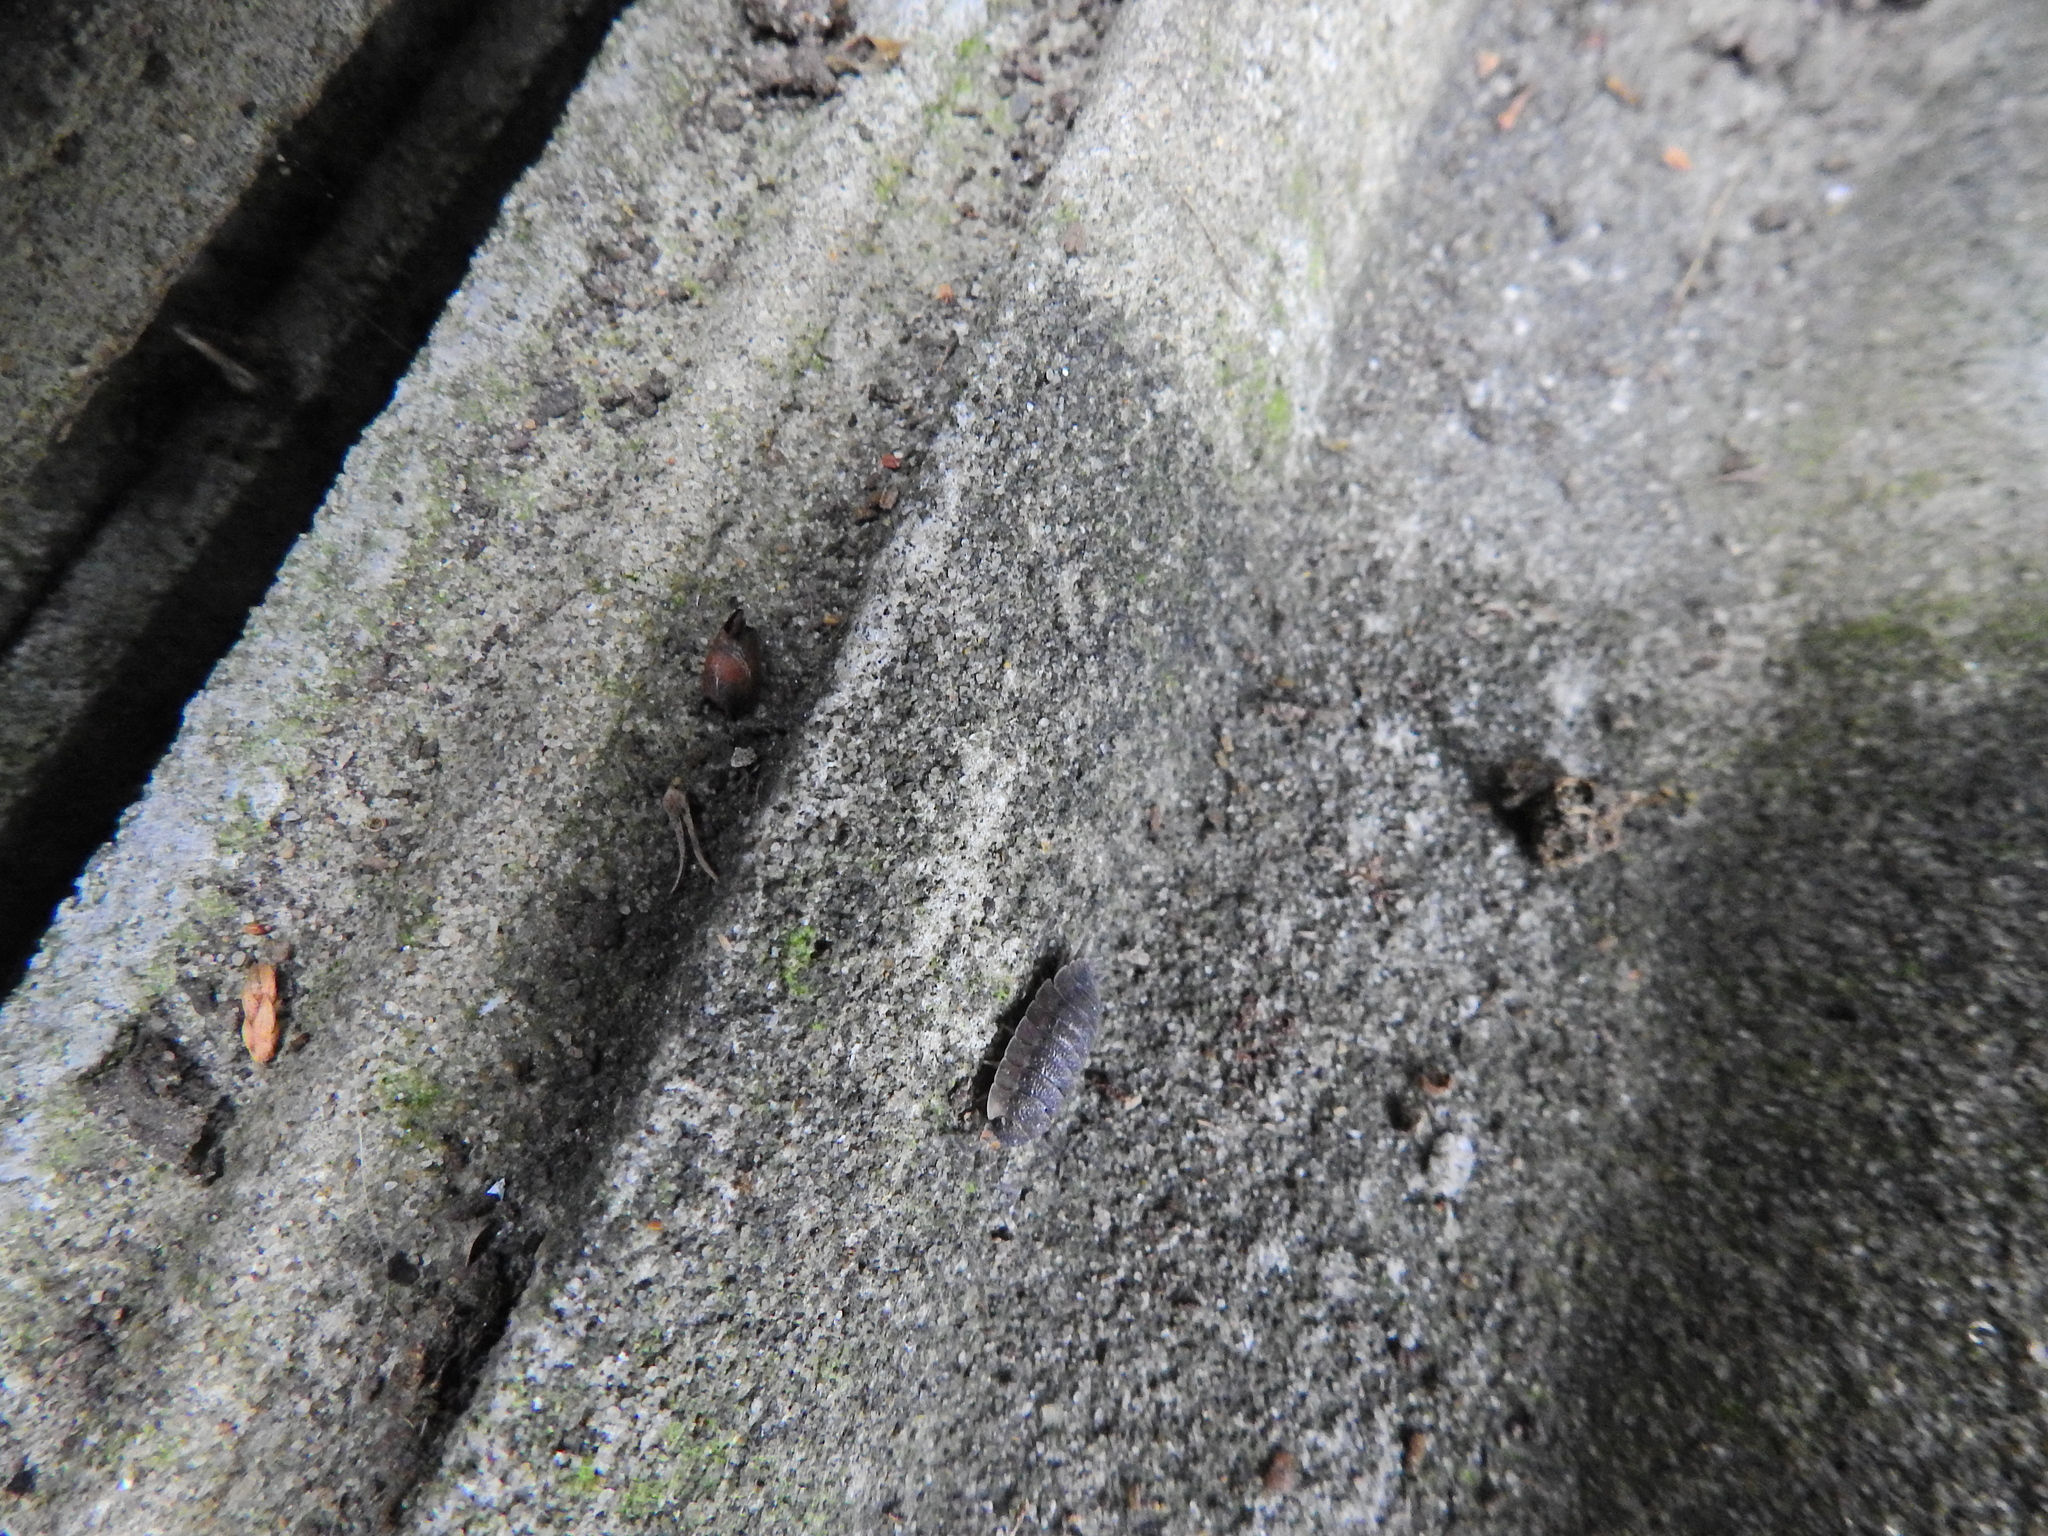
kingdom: Animalia
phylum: Arthropoda
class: Malacostraca
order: Isopoda
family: Porcellionidae
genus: Porcellio
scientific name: Porcellio scaber
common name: Common rough woodlouse
